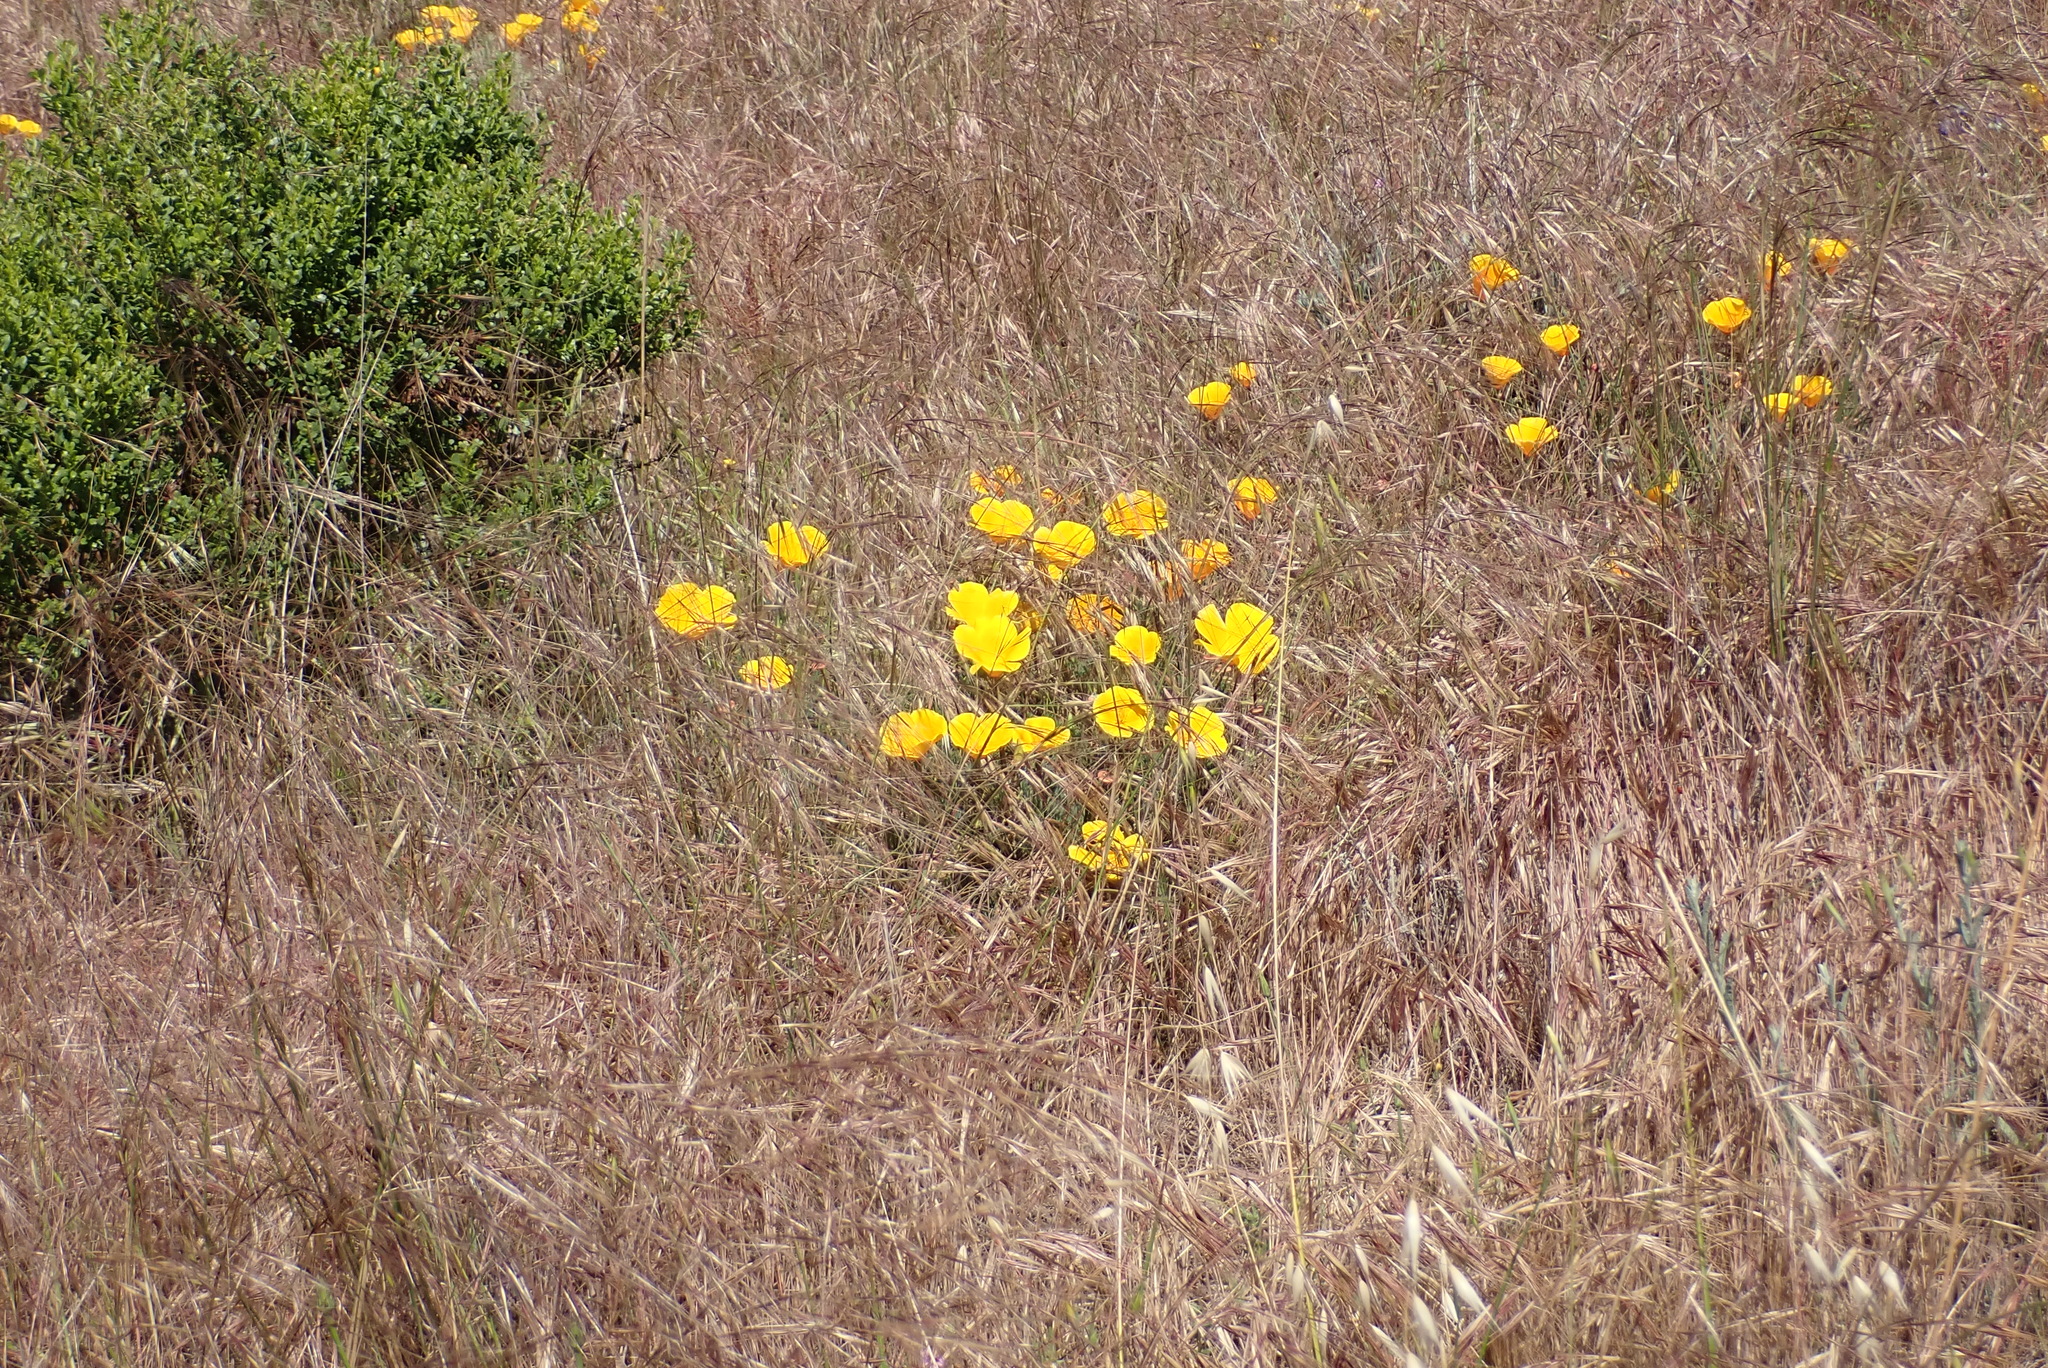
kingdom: Plantae
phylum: Tracheophyta
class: Magnoliopsida
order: Ranunculales
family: Papaveraceae
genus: Eschscholzia
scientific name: Eschscholzia californica
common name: California poppy
